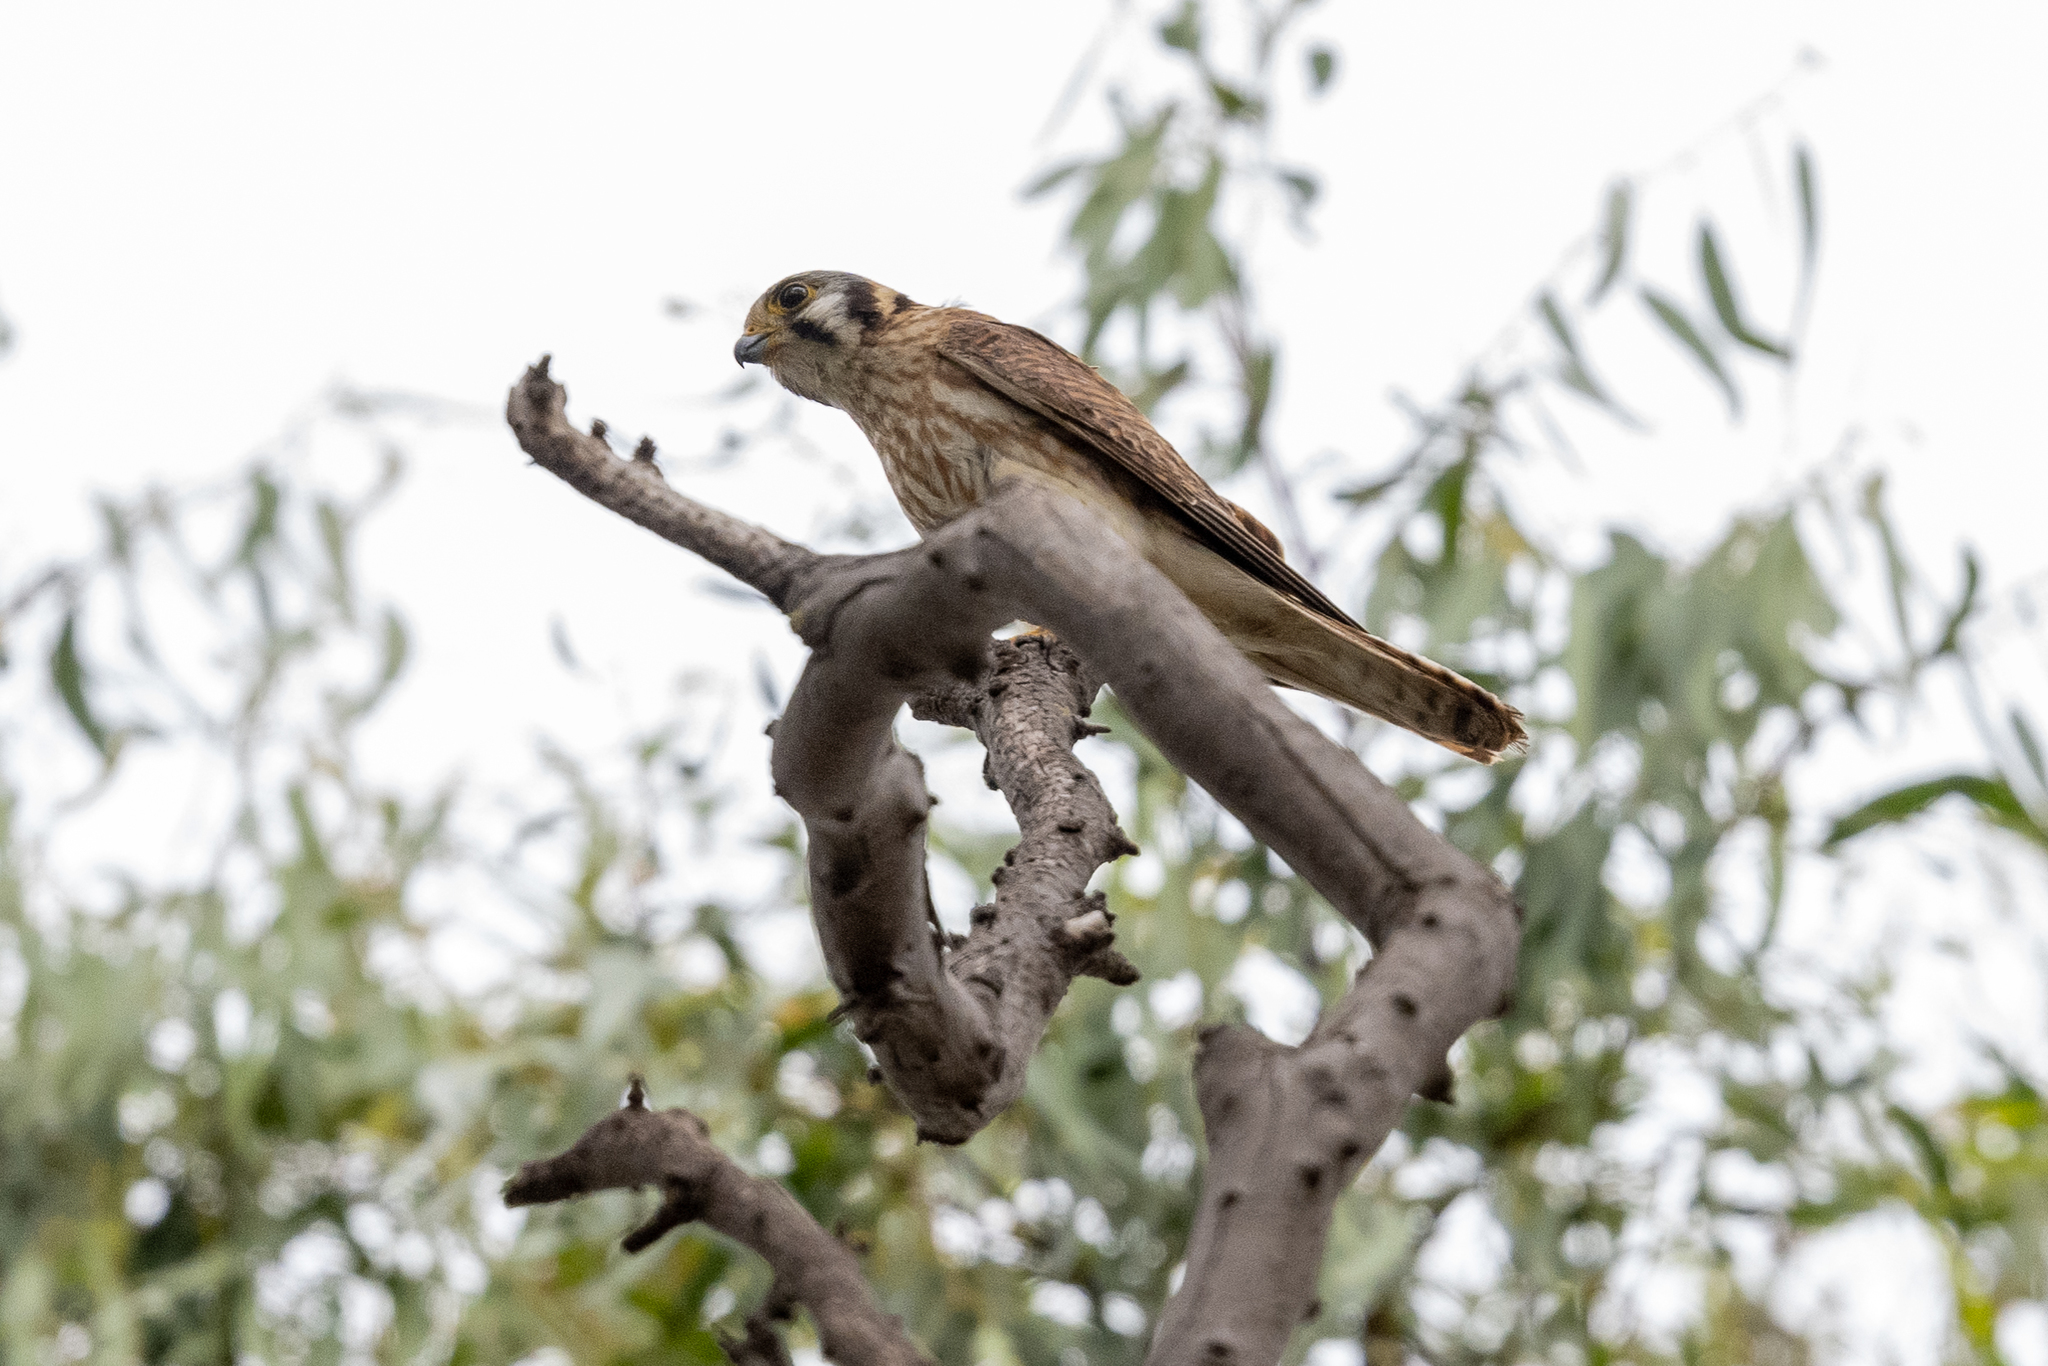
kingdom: Animalia
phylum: Chordata
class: Aves
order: Falconiformes
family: Falconidae
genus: Falco
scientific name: Falco sparverius
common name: American kestrel
